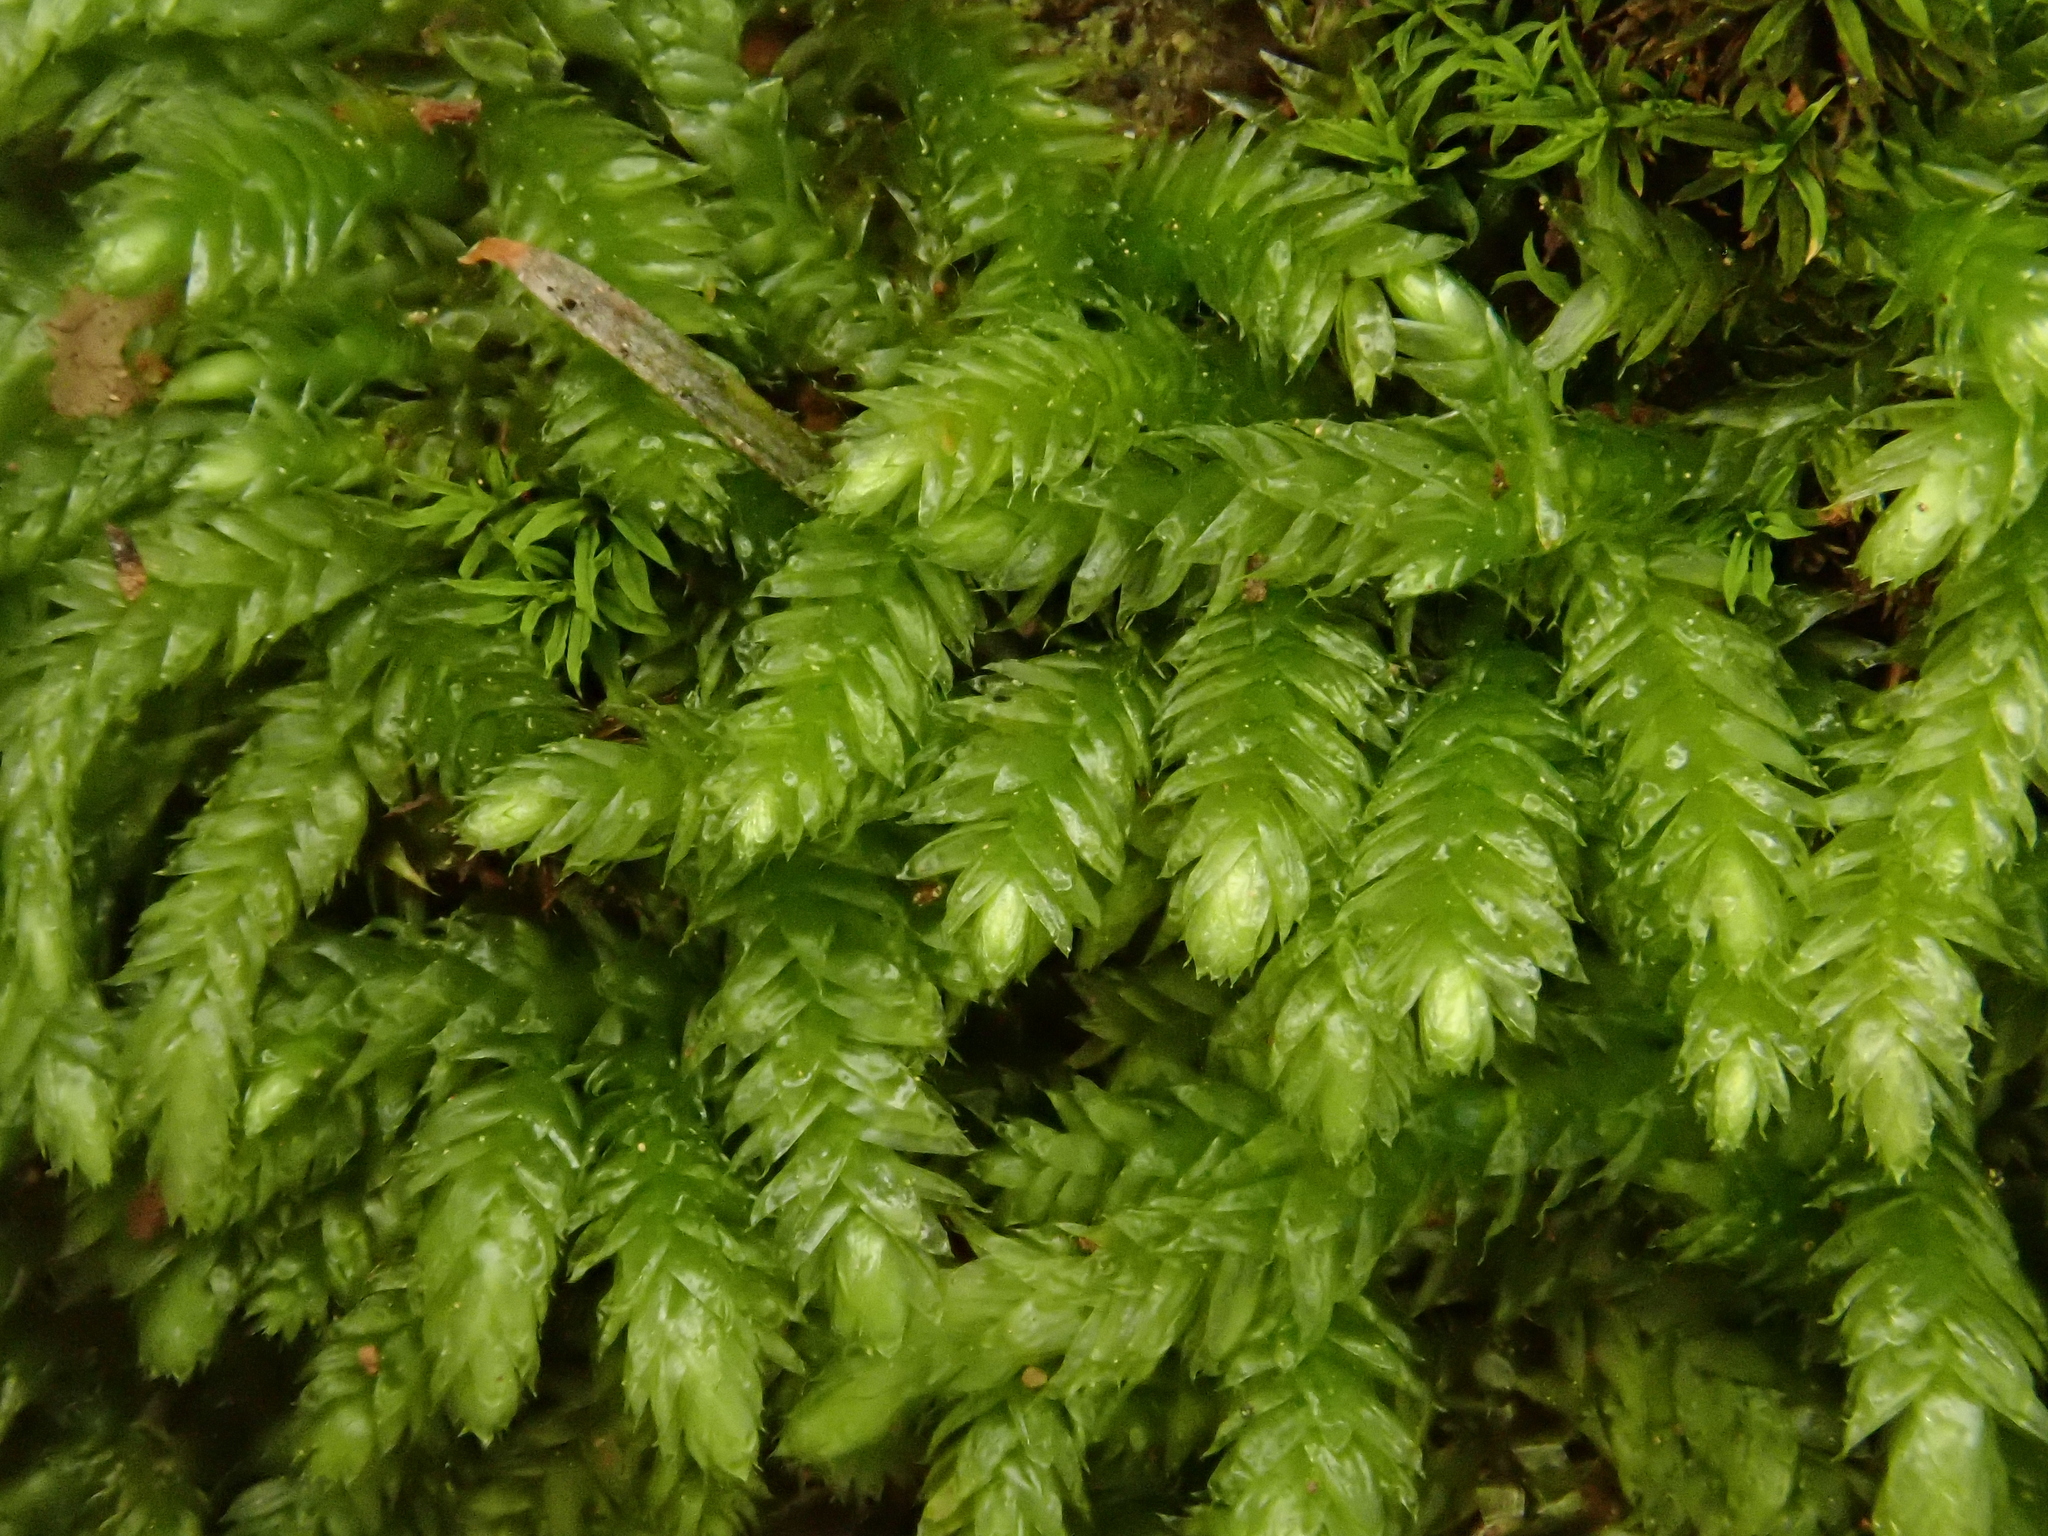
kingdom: Plantae
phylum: Bryophyta
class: Bryopsida
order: Hypnales
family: Brachytheciaceae
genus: Scleropodium
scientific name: Scleropodium touretii
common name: Glass-wort feather-moss
